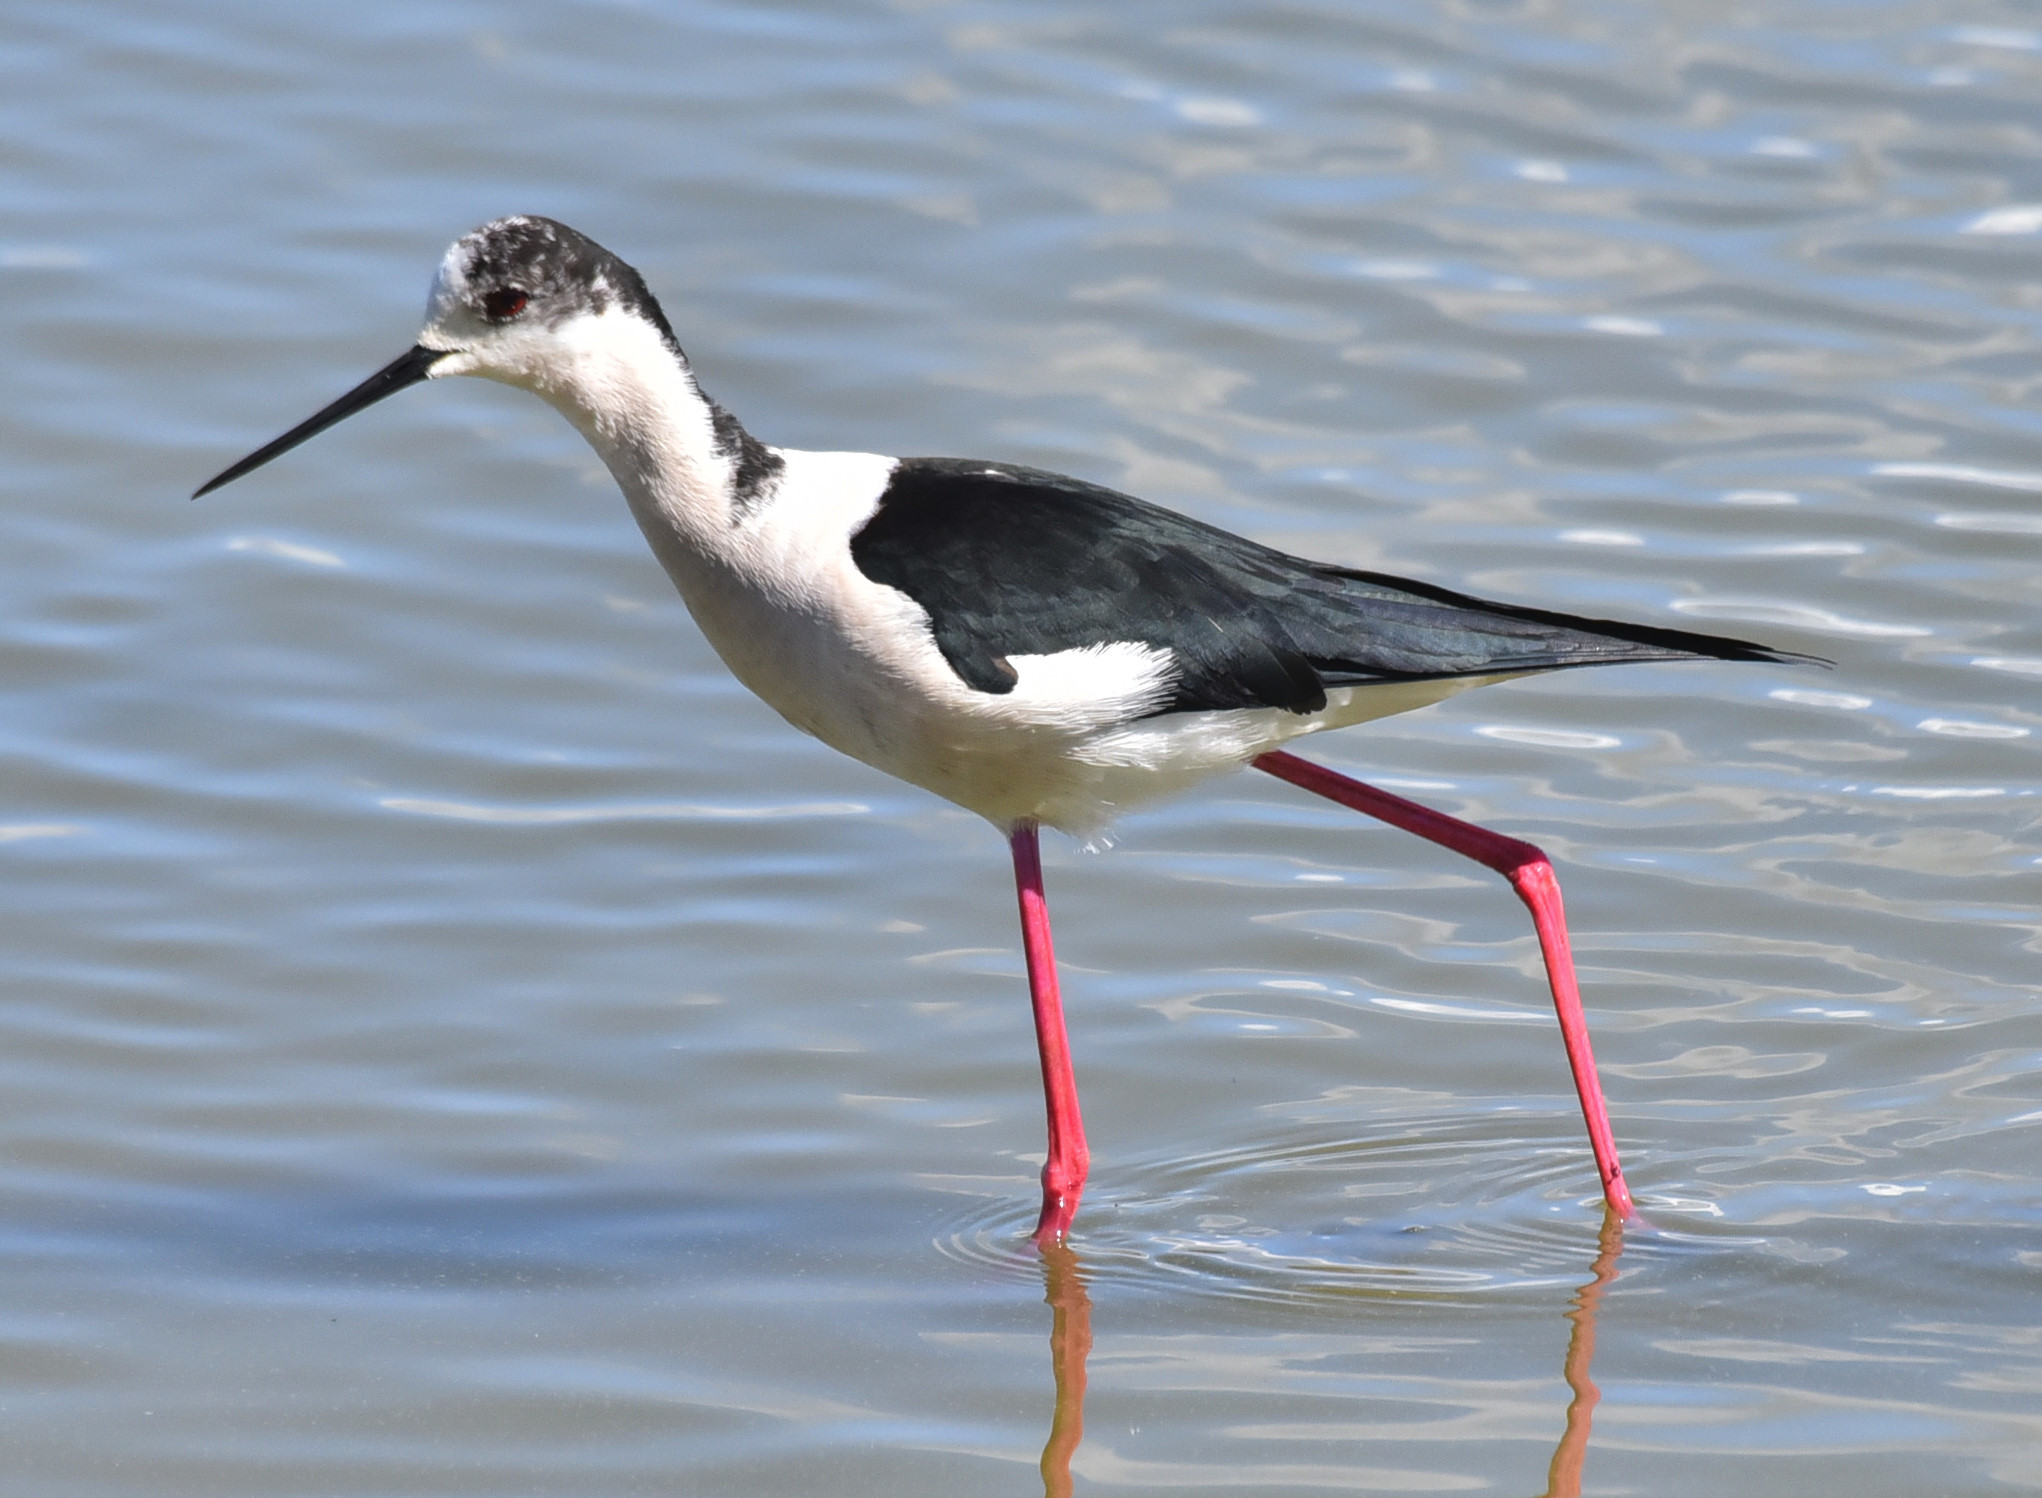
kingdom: Animalia
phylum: Chordata
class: Aves
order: Charadriiformes
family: Recurvirostridae
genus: Himantopus
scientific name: Himantopus himantopus
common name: Black-winged stilt
